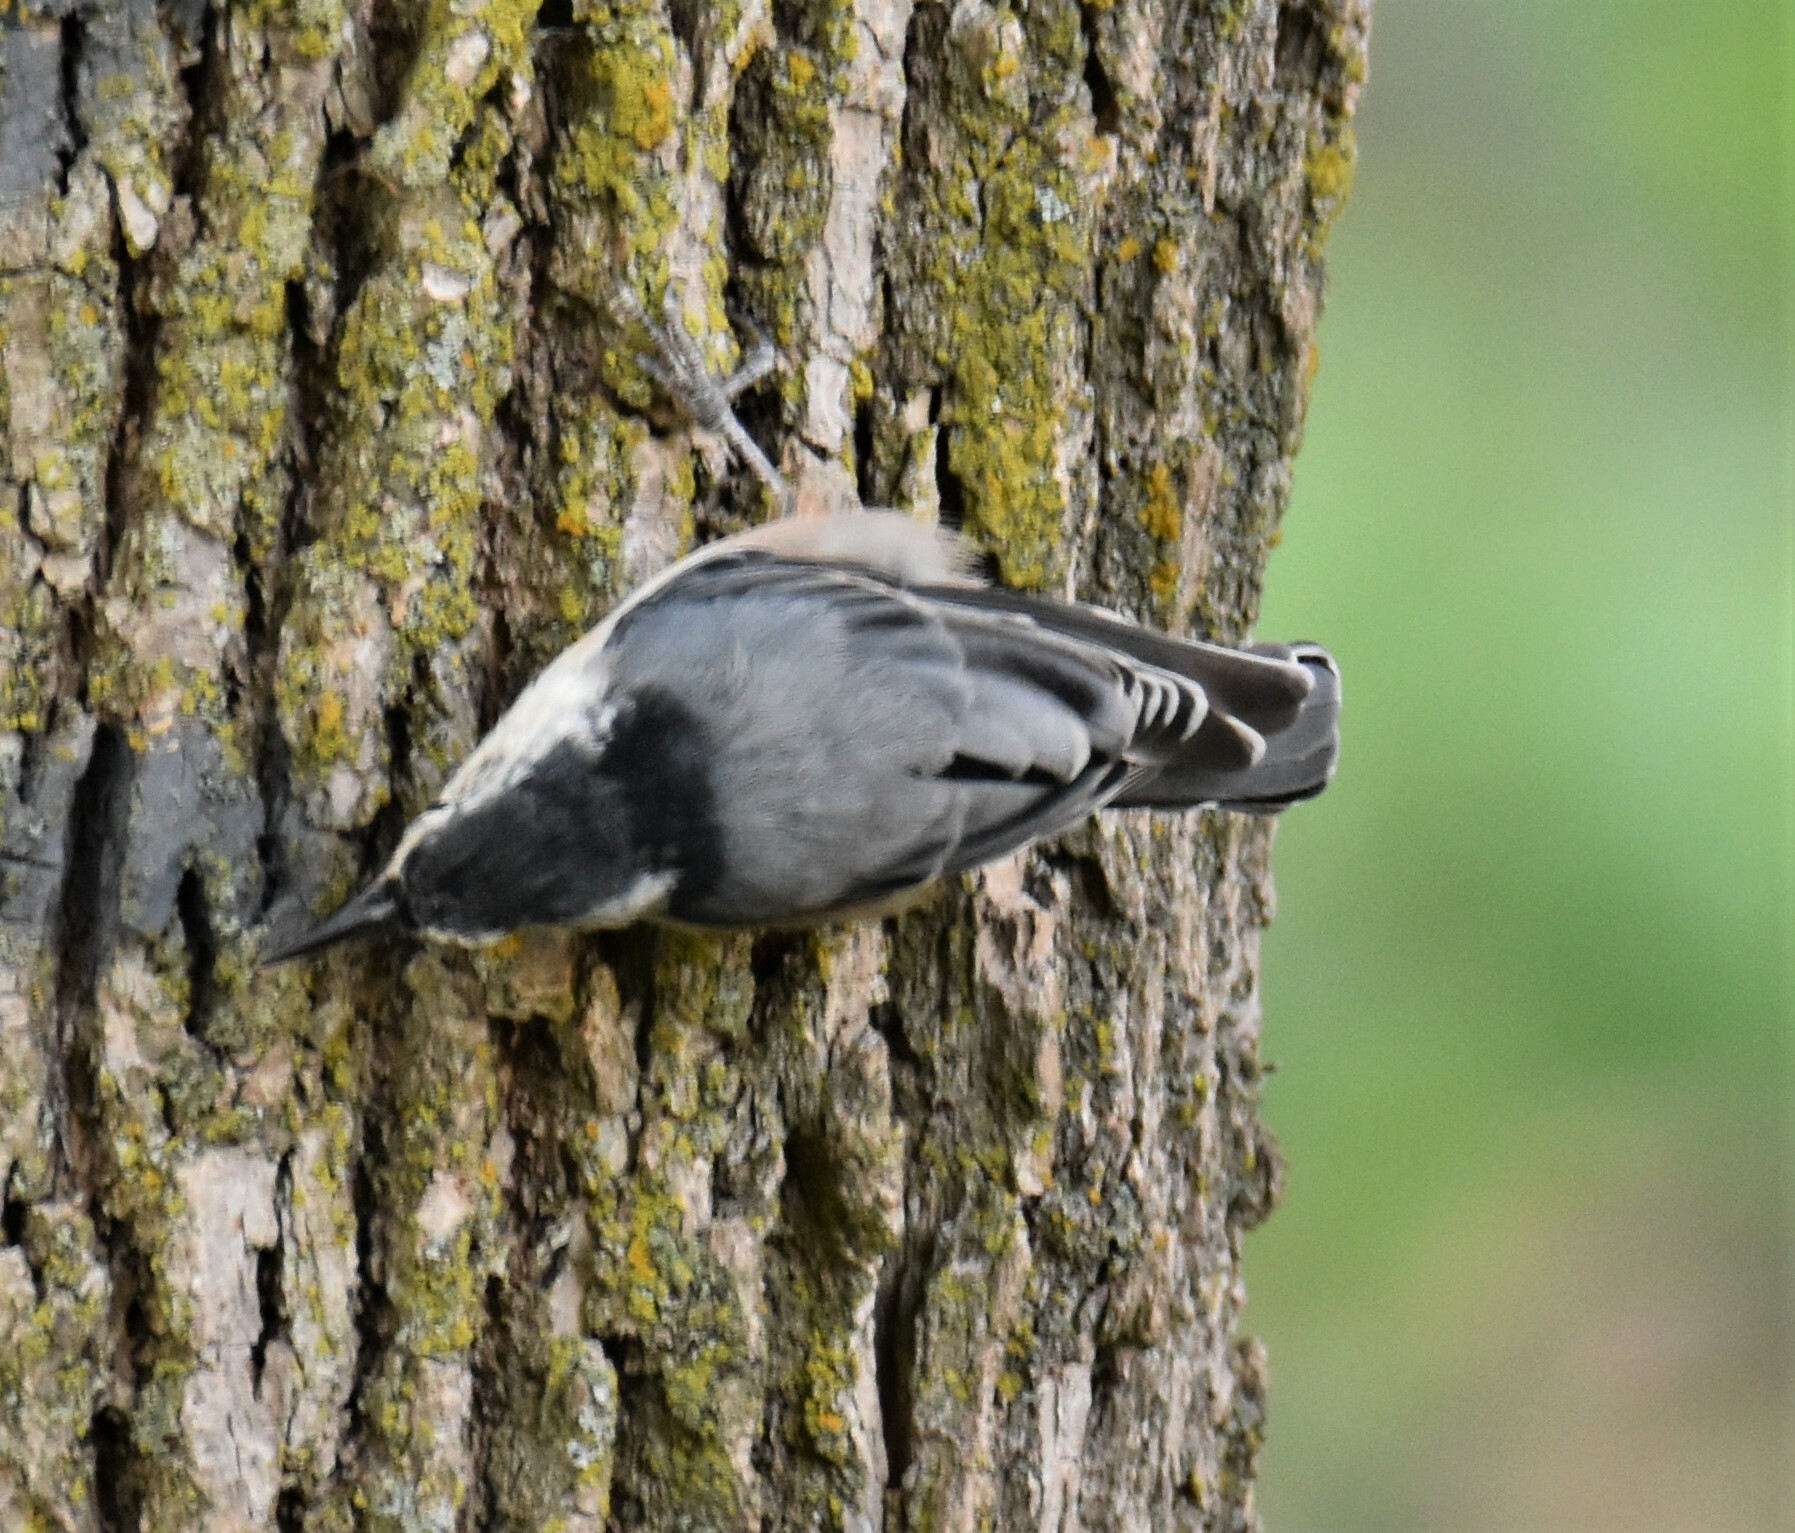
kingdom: Animalia
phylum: Chordata
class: Aves
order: Passeriformes
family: Sittidae
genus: Sitta
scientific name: Sitta carolinensis
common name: White-breasted nuthatch
